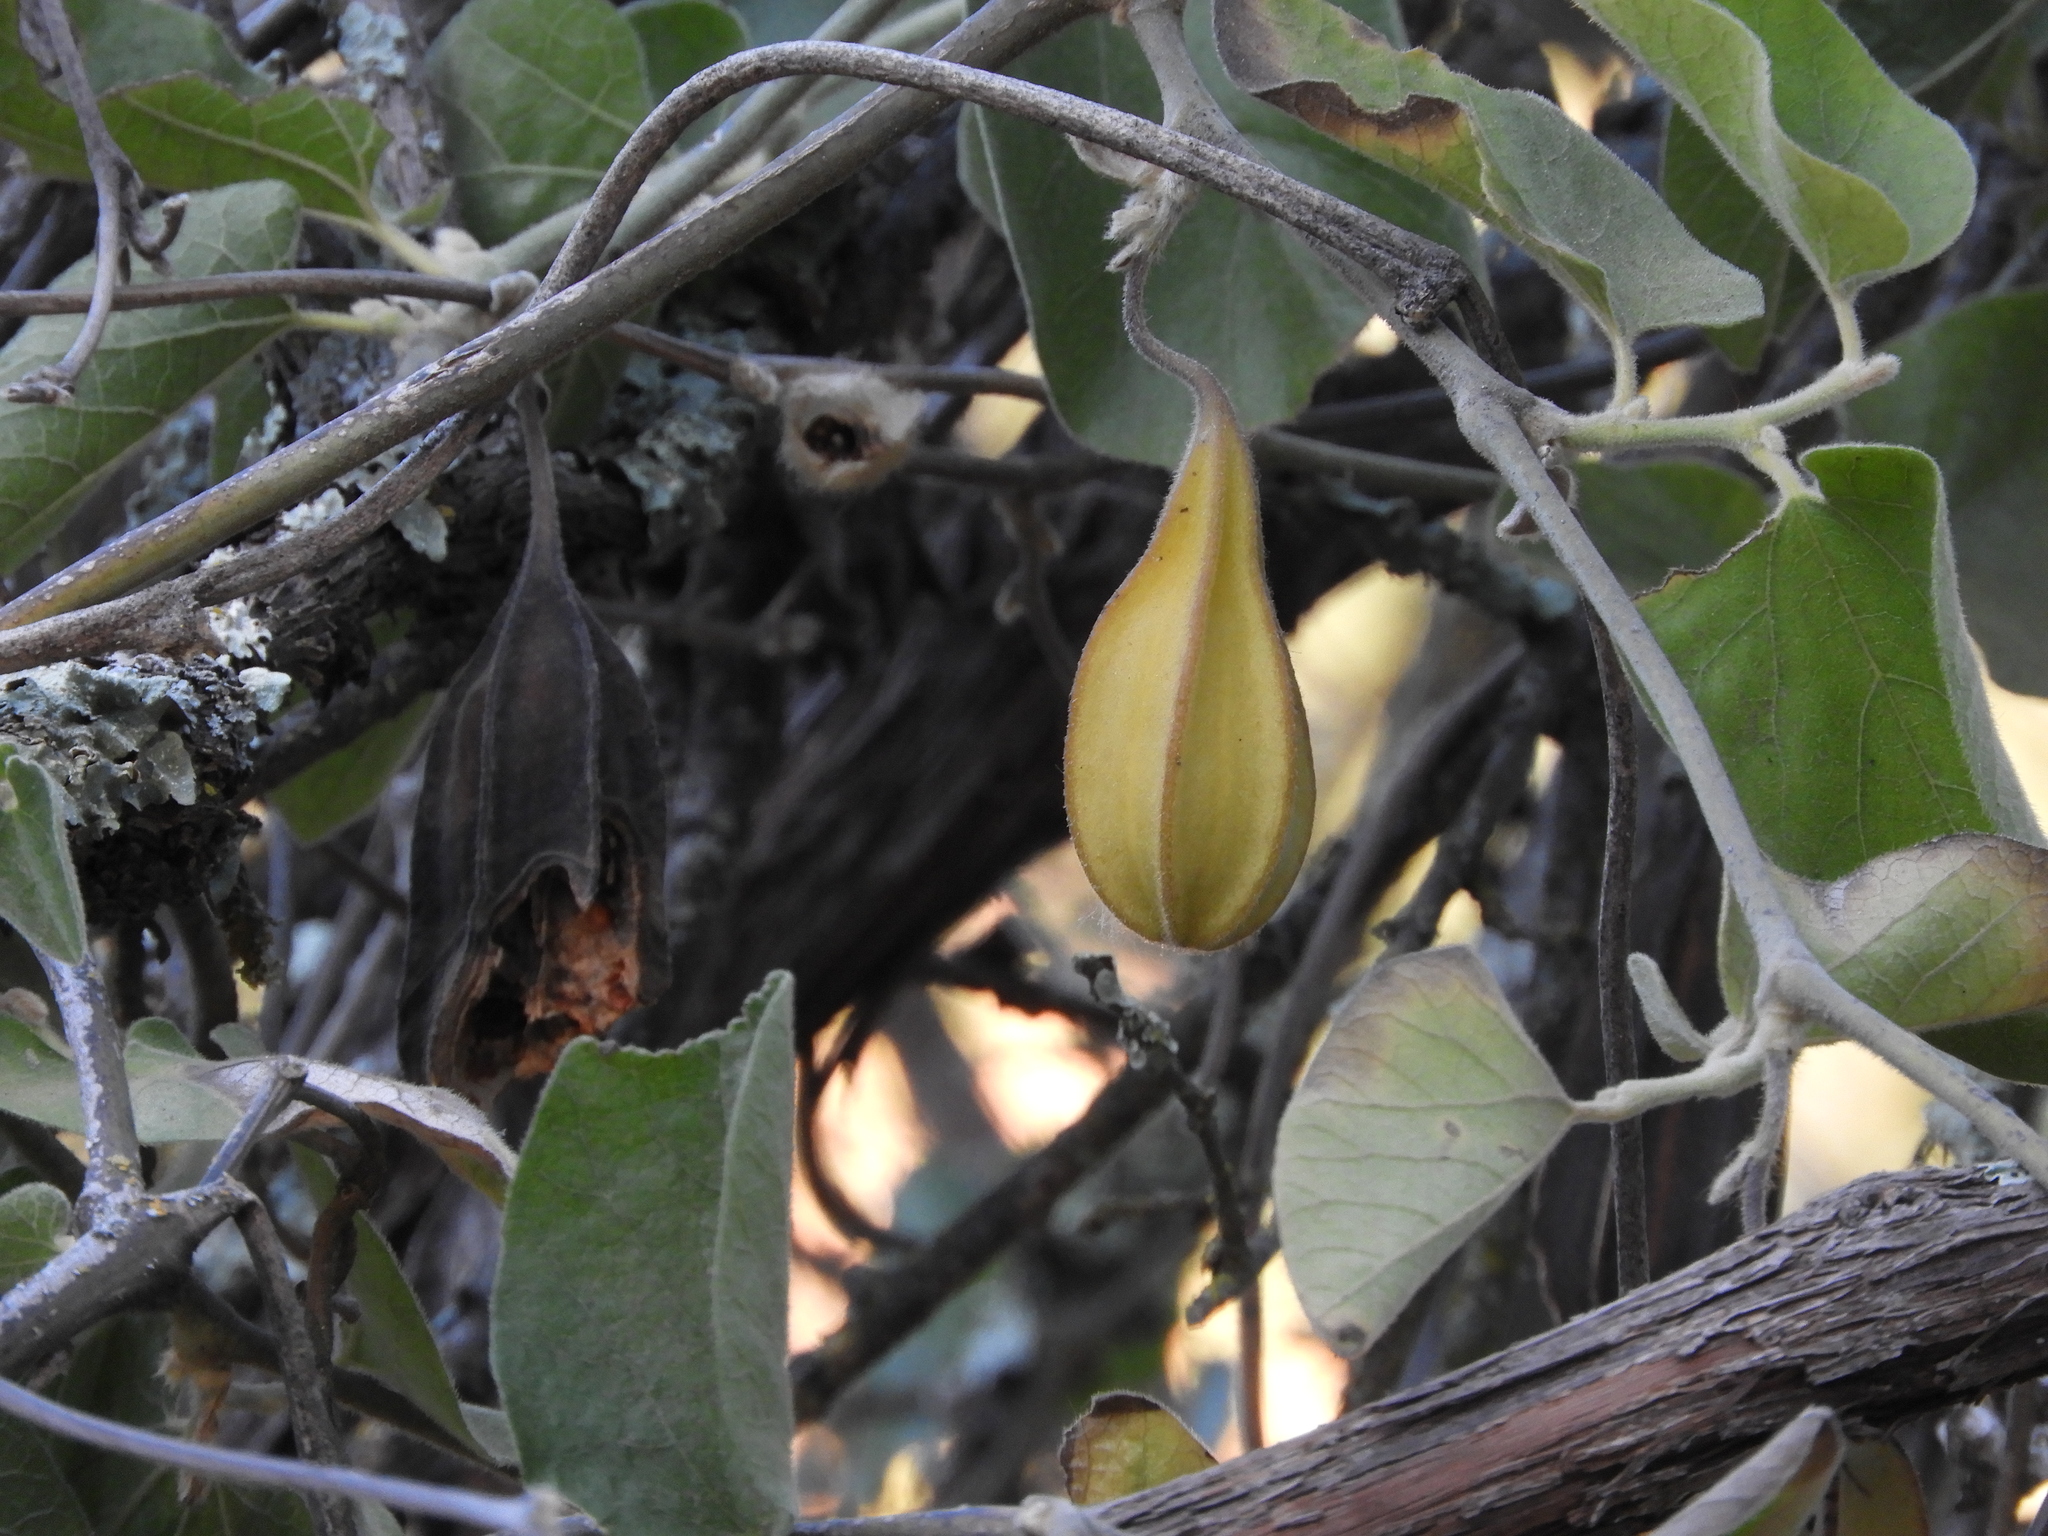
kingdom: Plantae
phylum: Tracheophyta
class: Magnoliopsida
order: Piperales
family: Aristolochiaceae
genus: Isotrema
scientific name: Isotrema californicum
